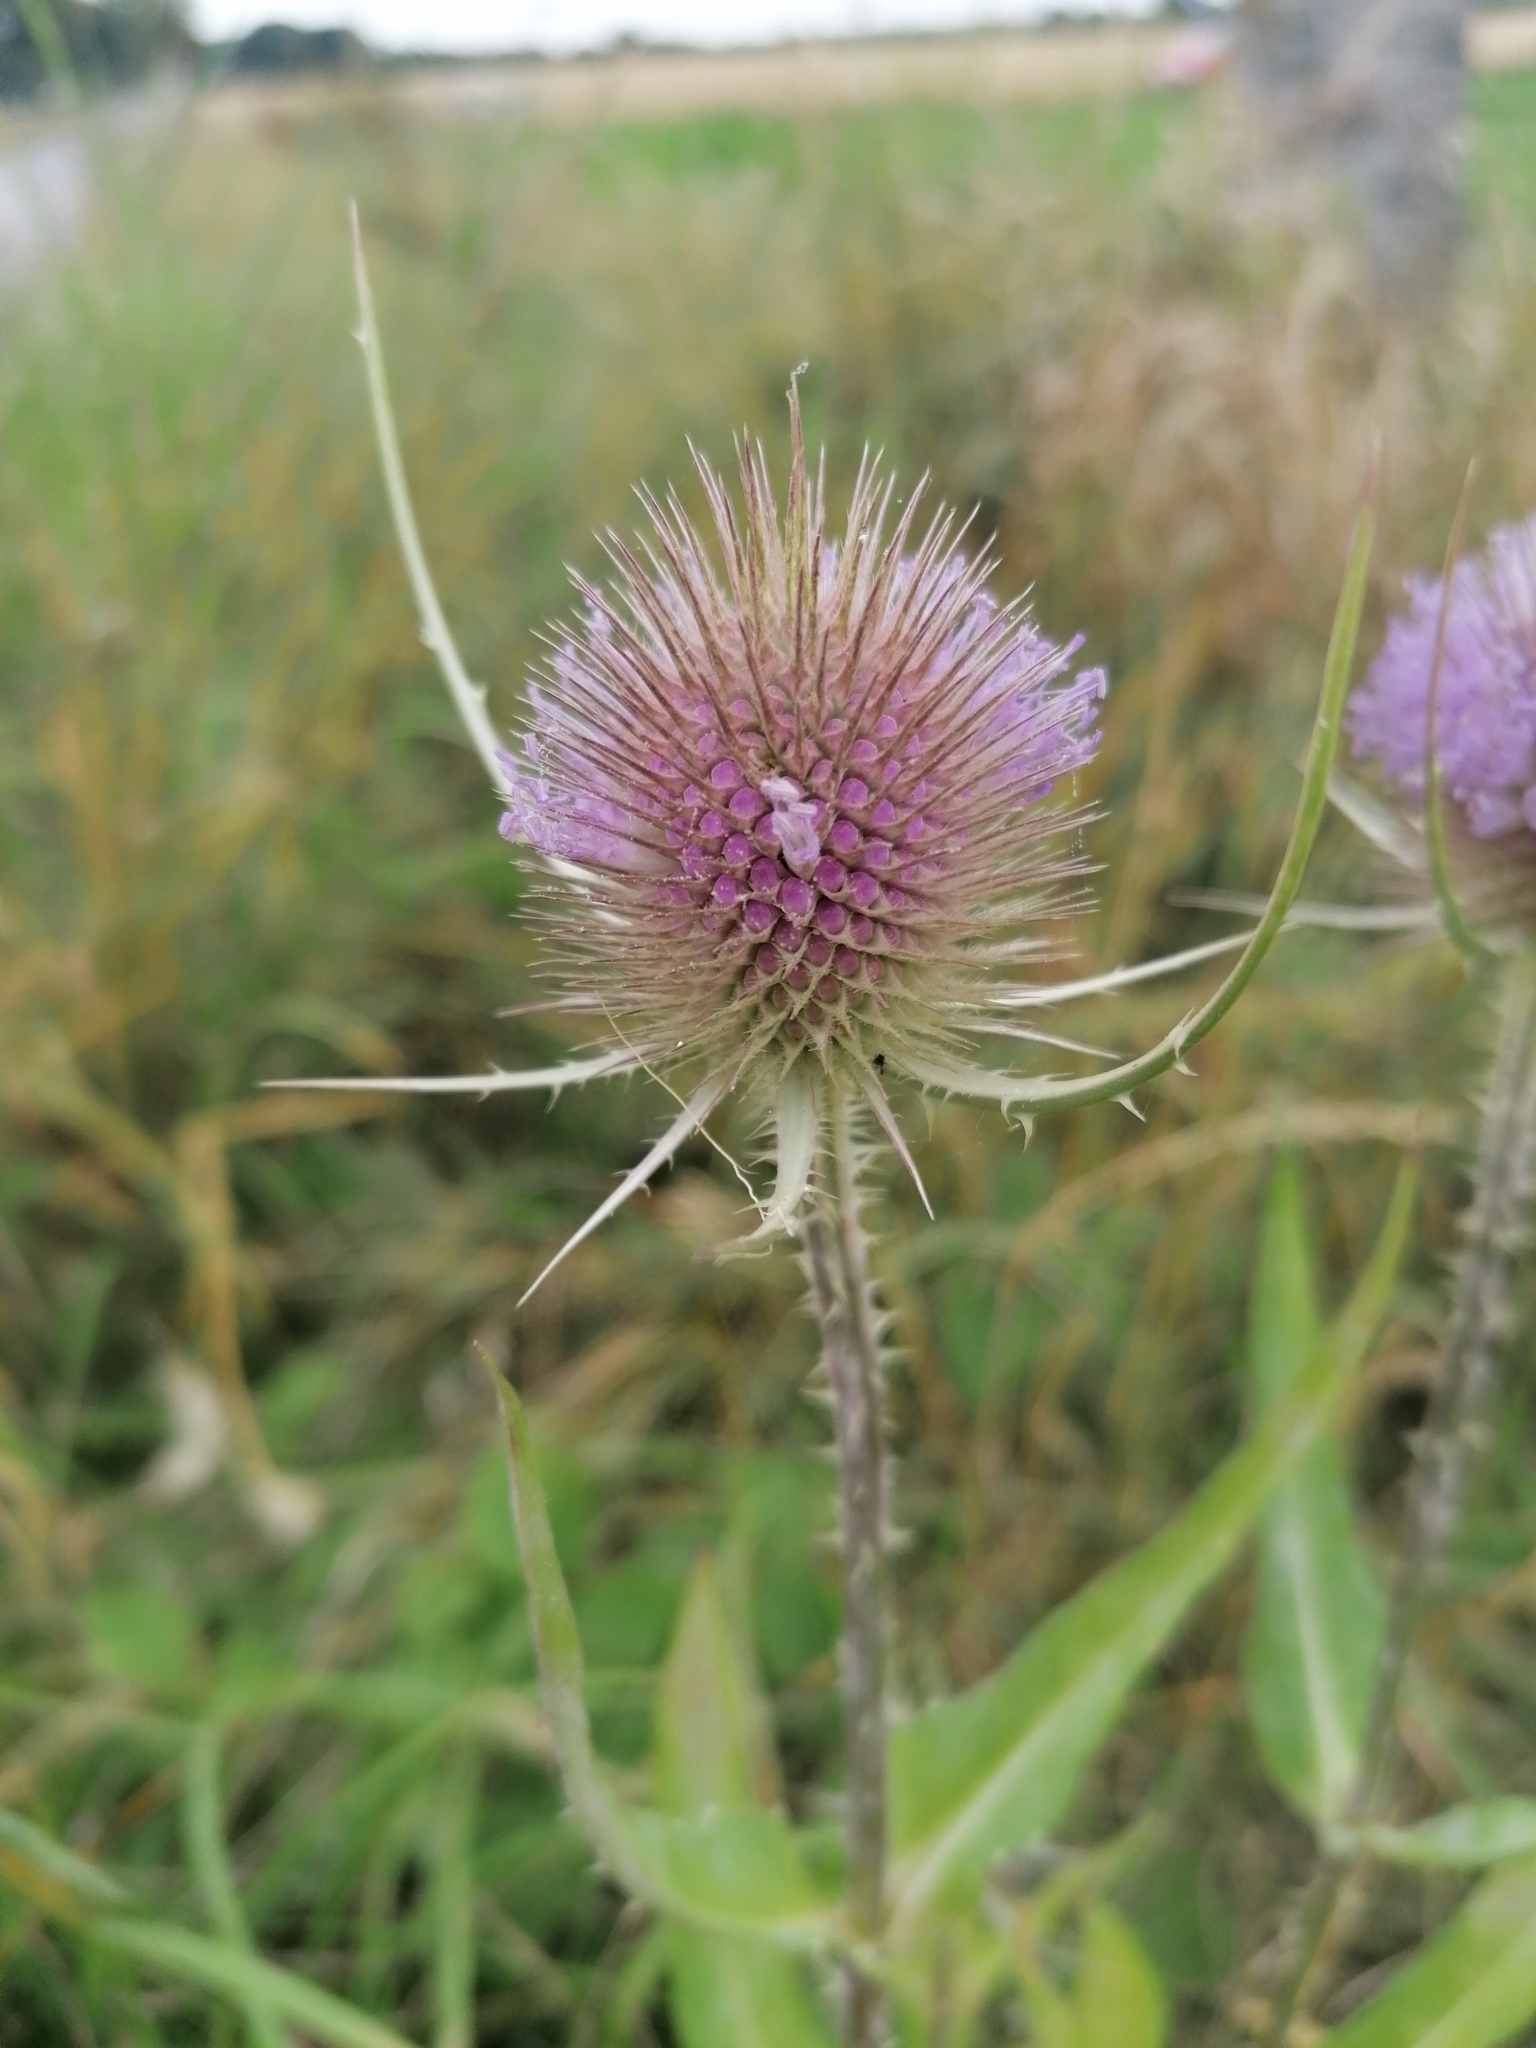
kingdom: Plantae
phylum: Tracheophyta
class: Magnoliopsida
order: Dipsacales
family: Caprifoliaceae
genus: Dipsacus
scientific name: Dipsacus fullonum
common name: Teasel
